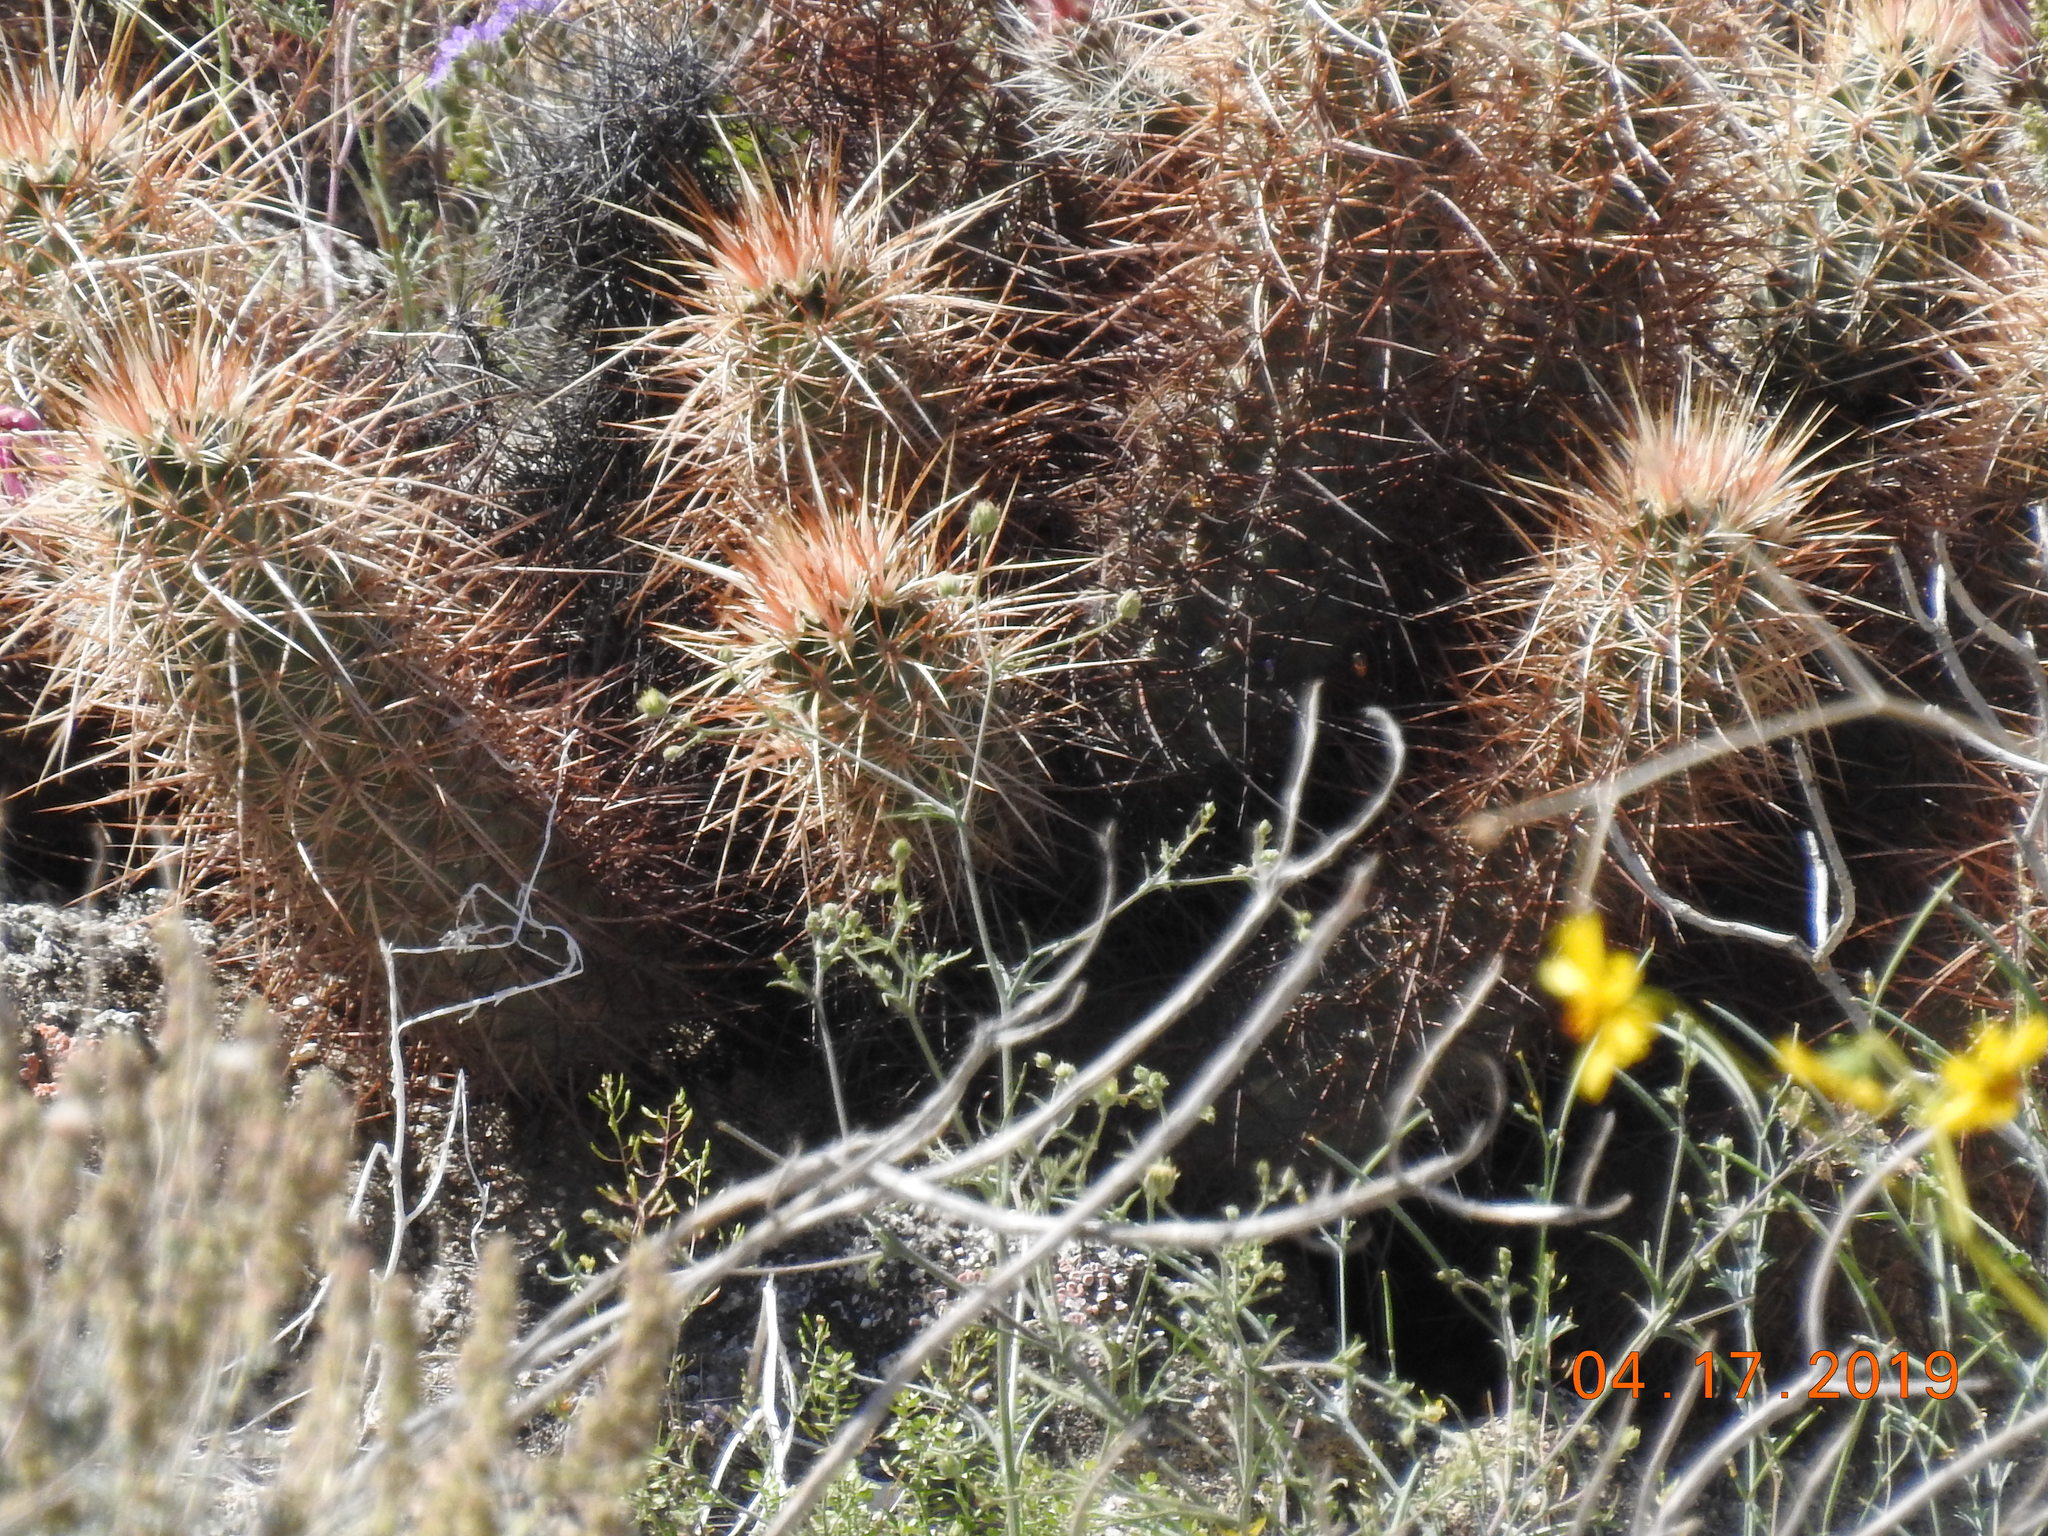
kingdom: Plantae
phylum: Tracheophyta
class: Magnoliopsida
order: Caryophyllales
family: Cactaceae
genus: Echinocereus
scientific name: Echinocereus engelmannii
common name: Engelmann's hedgehog cactus
